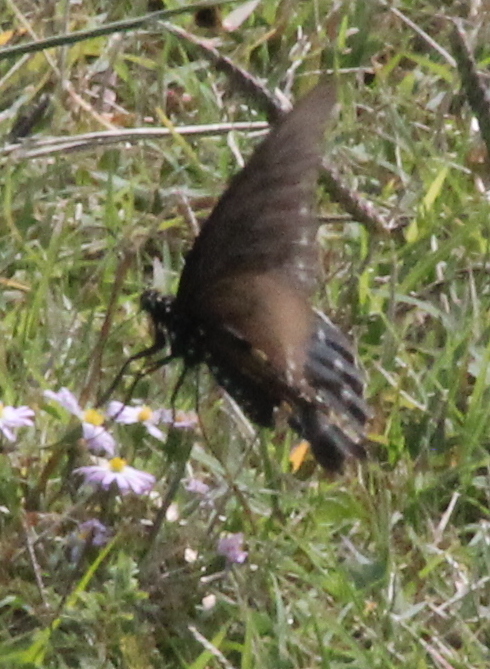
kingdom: Animalia
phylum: Arthropoda
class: Insecta
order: Lepidoptera
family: Papilionidae
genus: Battus
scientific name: Battus philenor
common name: Pipevine swallowtail
